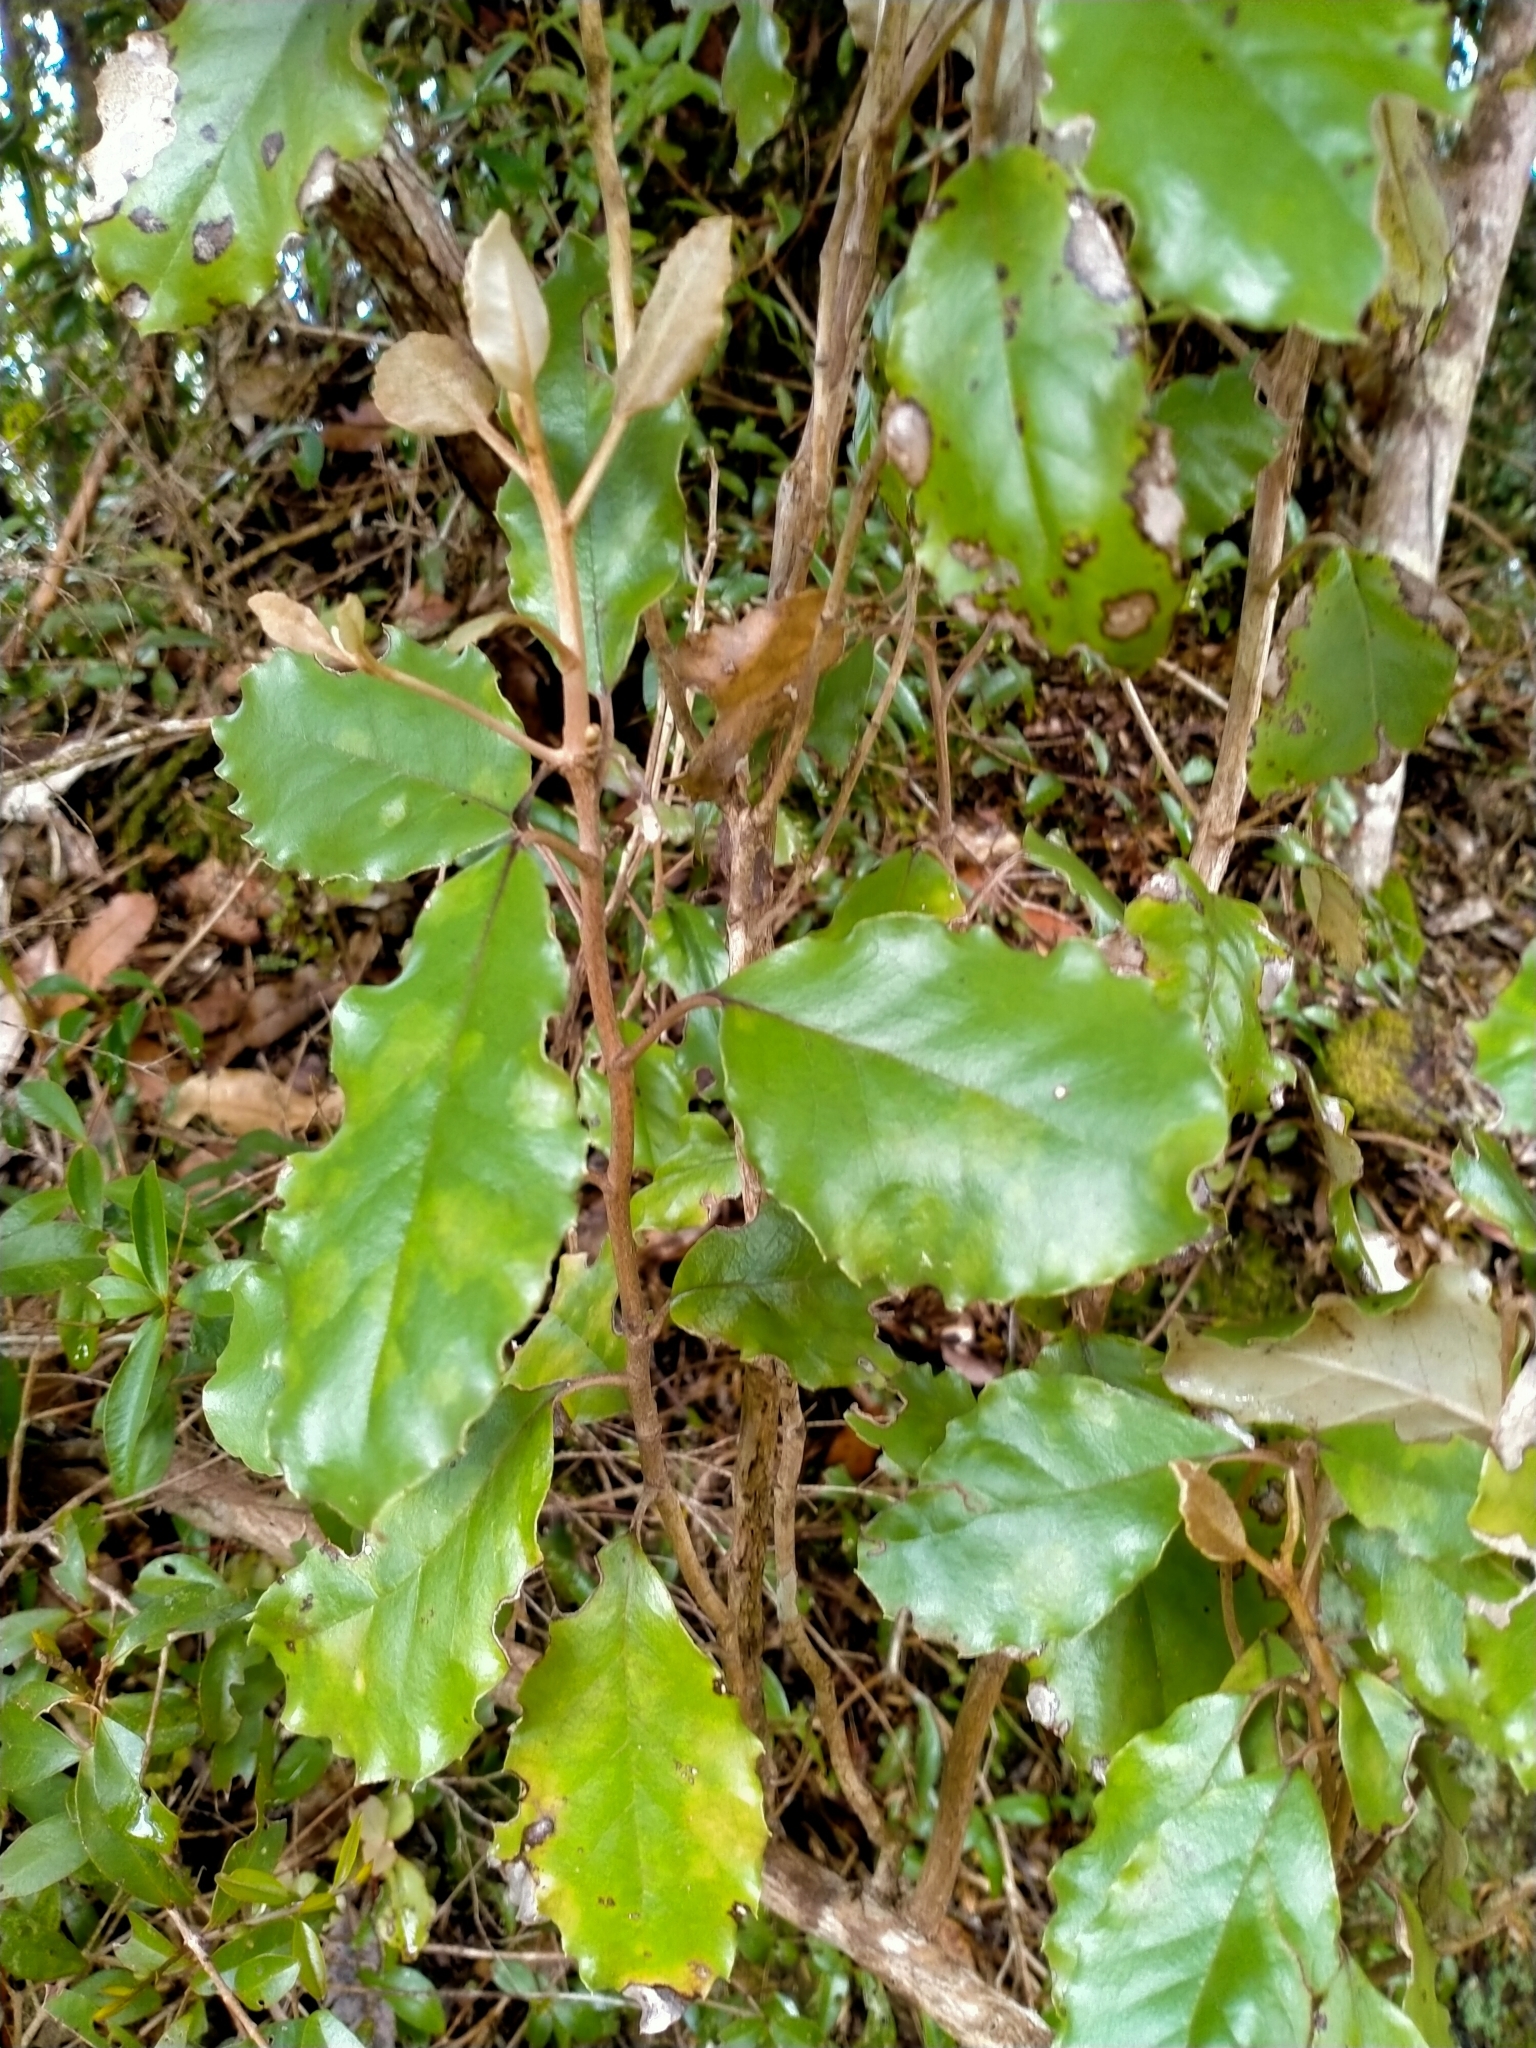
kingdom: Plantae
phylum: Tracheophyta
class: Magnoliopsida
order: Asterales
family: Asteraceae
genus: Olearia
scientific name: Olearia furfuracea
